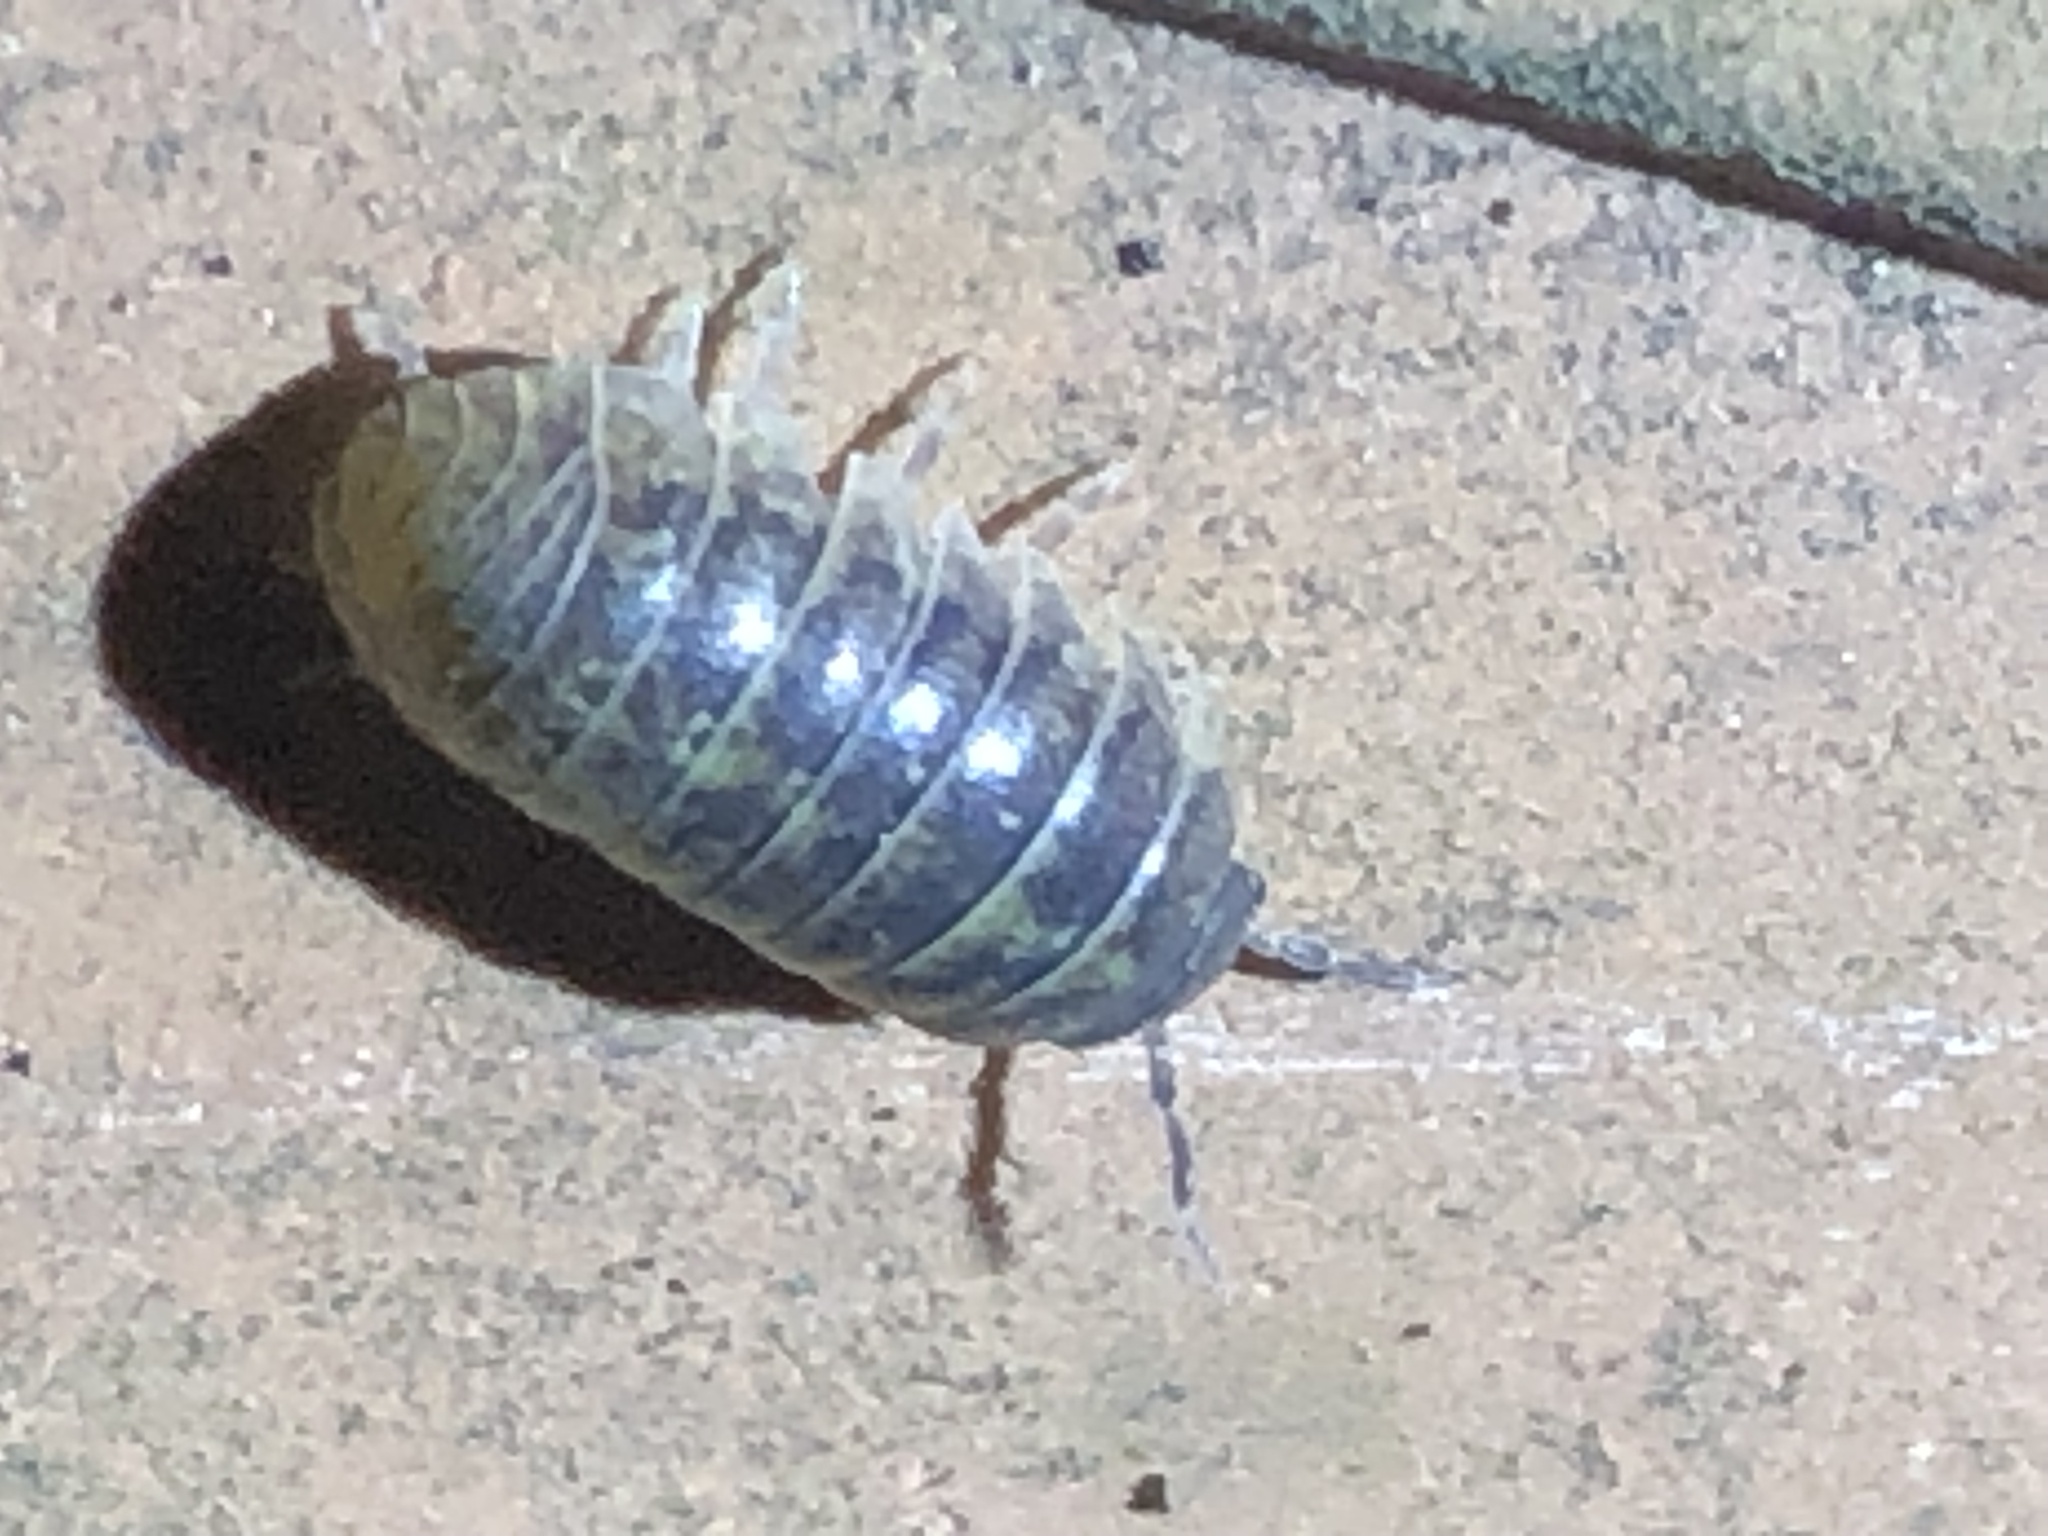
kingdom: Animalia
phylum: Arthropoda
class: Malacostraca
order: Isopoda
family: Armadillidiidae
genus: Armadillidium
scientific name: Armadillidium vulgare
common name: Common pill woodlouse
